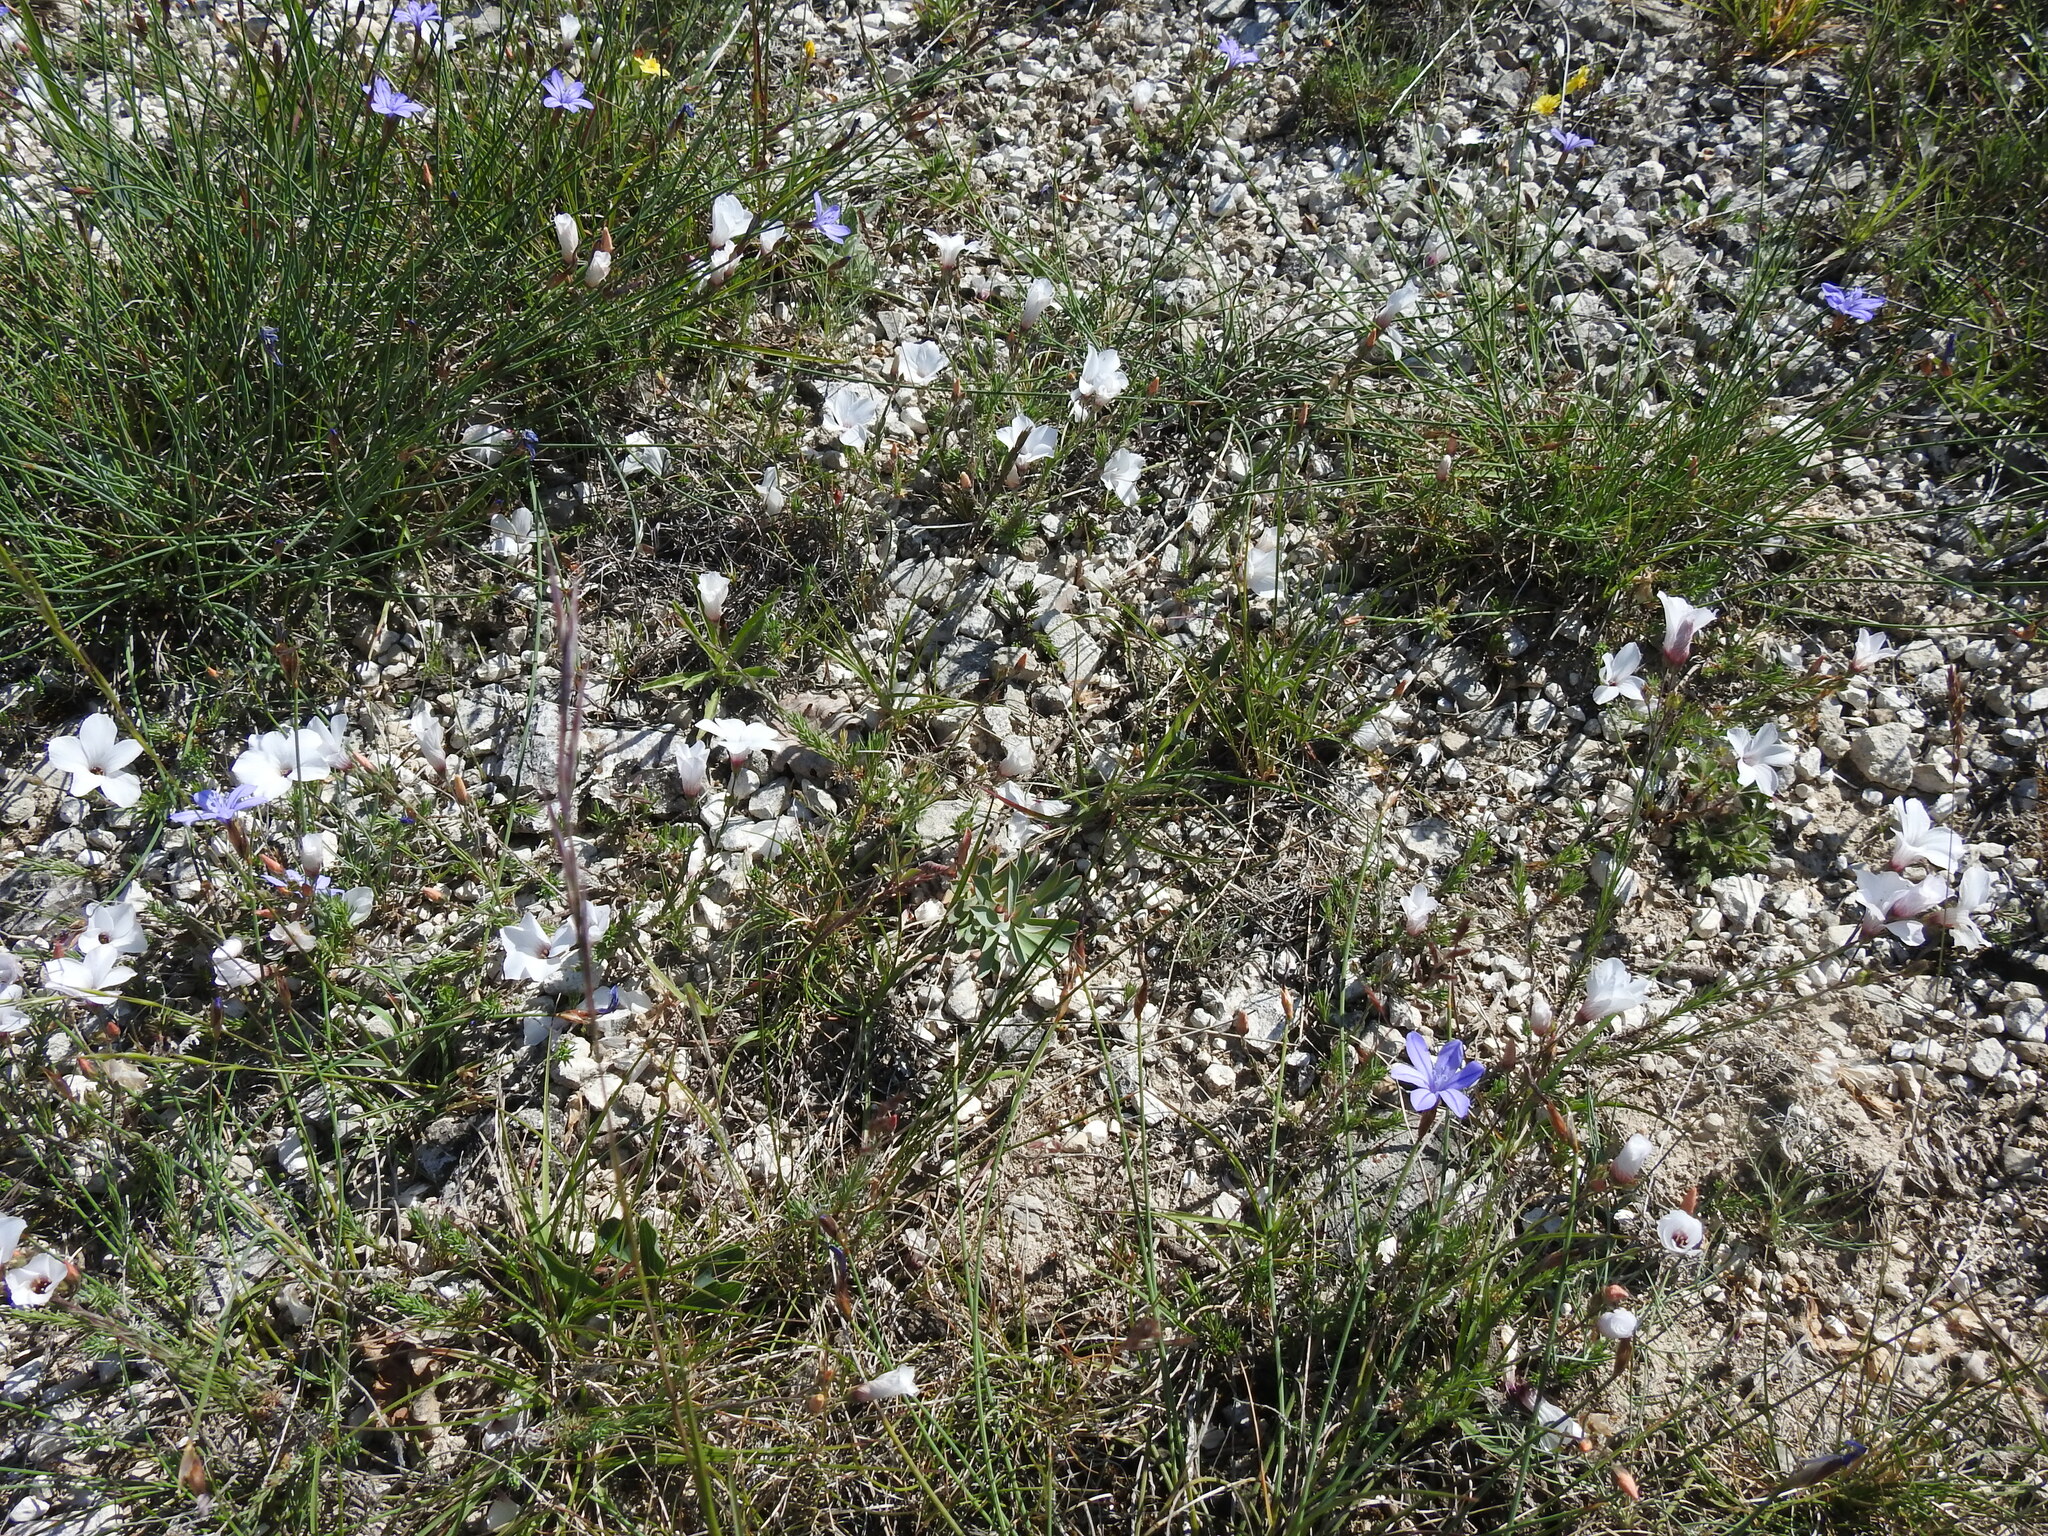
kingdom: Plantae
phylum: Tracheophyta
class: Magnoliopsida
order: Malpighiales
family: Linaceae
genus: Linum
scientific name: Linum suffruticosum
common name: White flax
